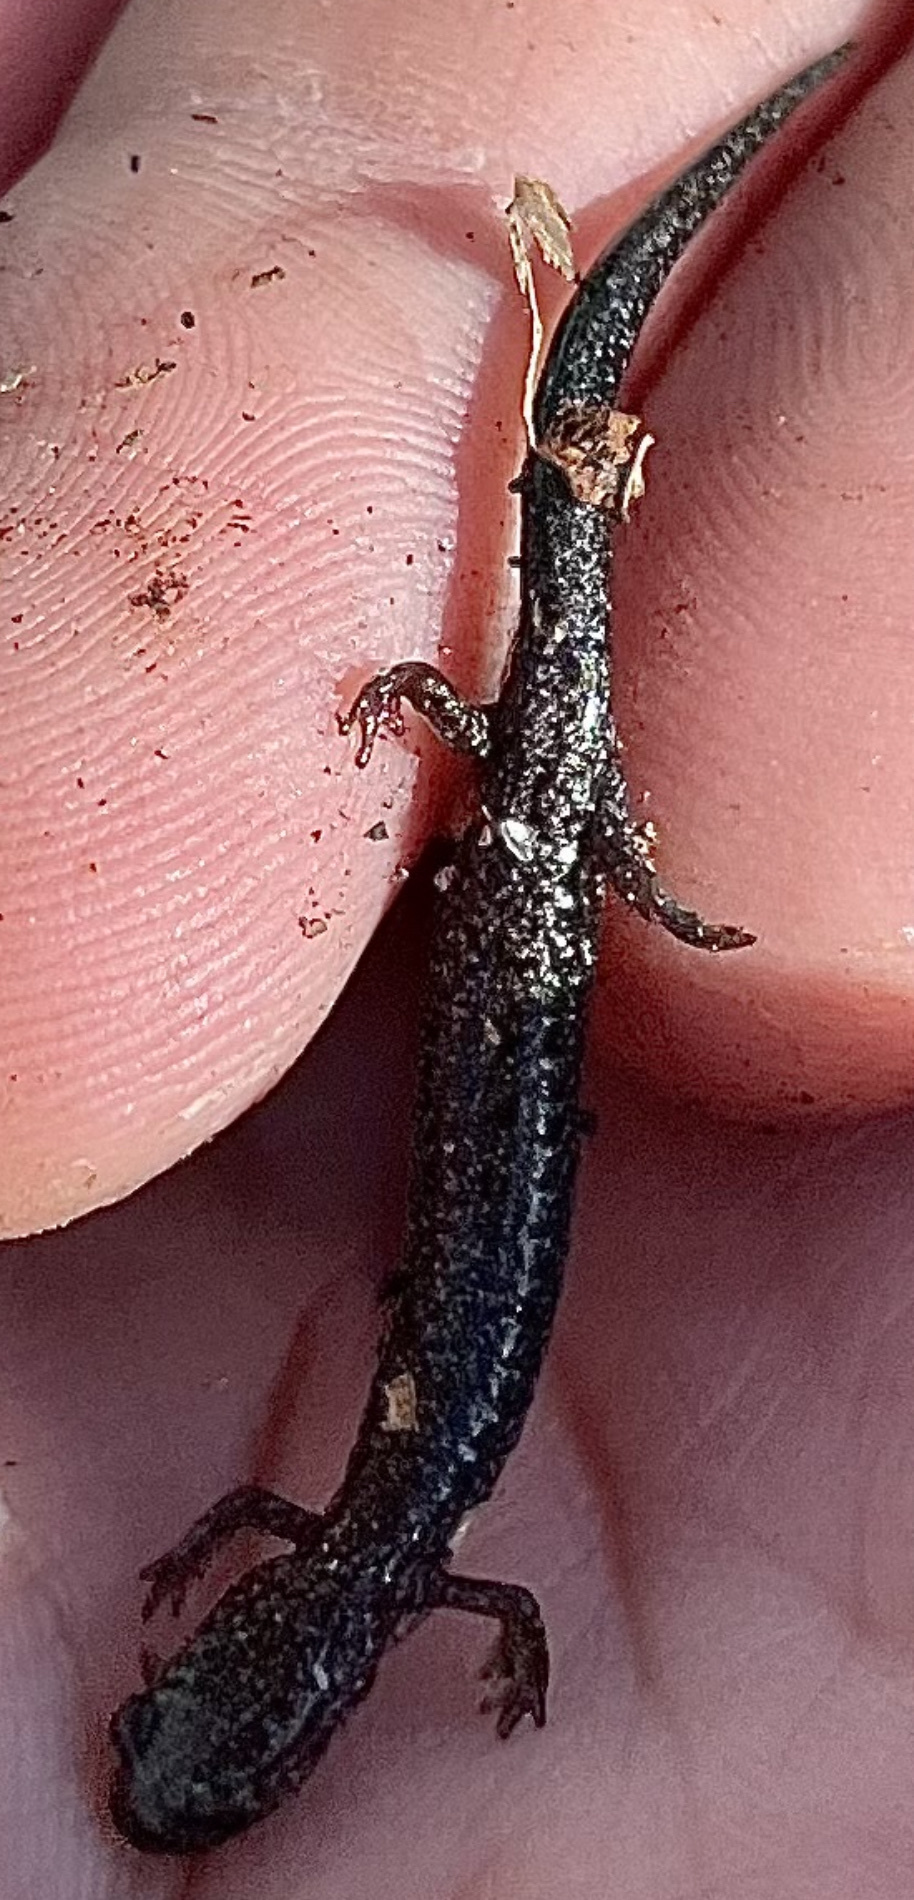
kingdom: Animalia
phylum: Chordata
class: Amphibia
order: Caudata
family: Plethodontidae
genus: Plethodon
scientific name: Plethodon cinereus
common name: Redback salamander
